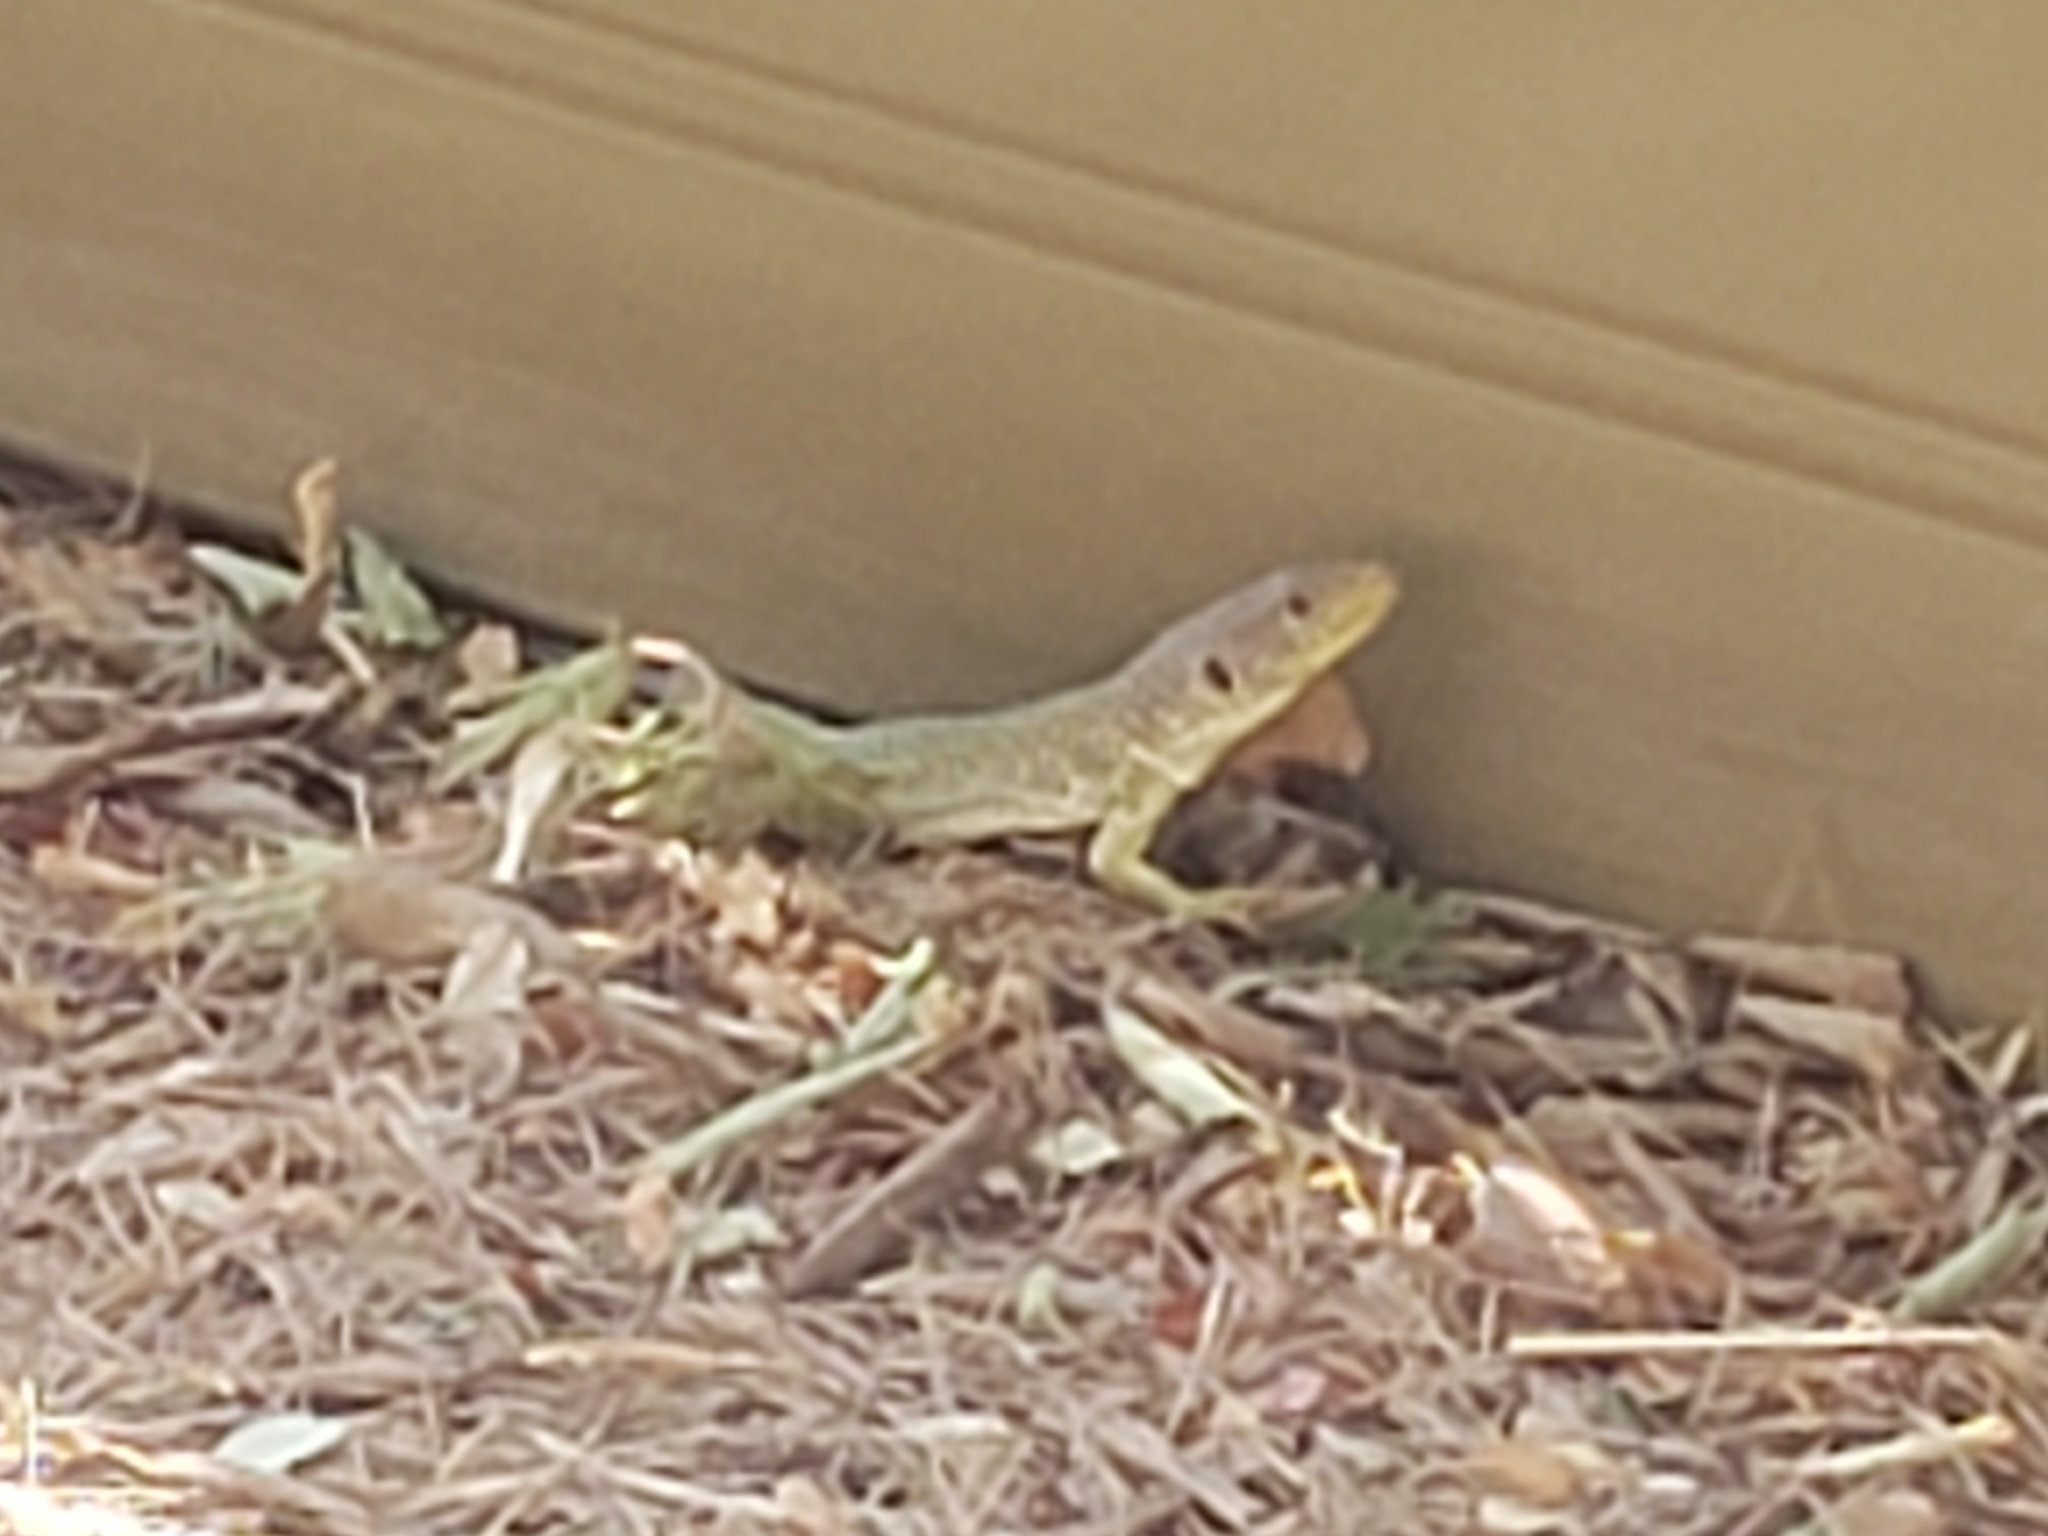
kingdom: Animalia
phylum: Chordata
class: Squamata
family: Lacertidae
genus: Timon
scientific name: Timon lepidus
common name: Ocellated lizard
